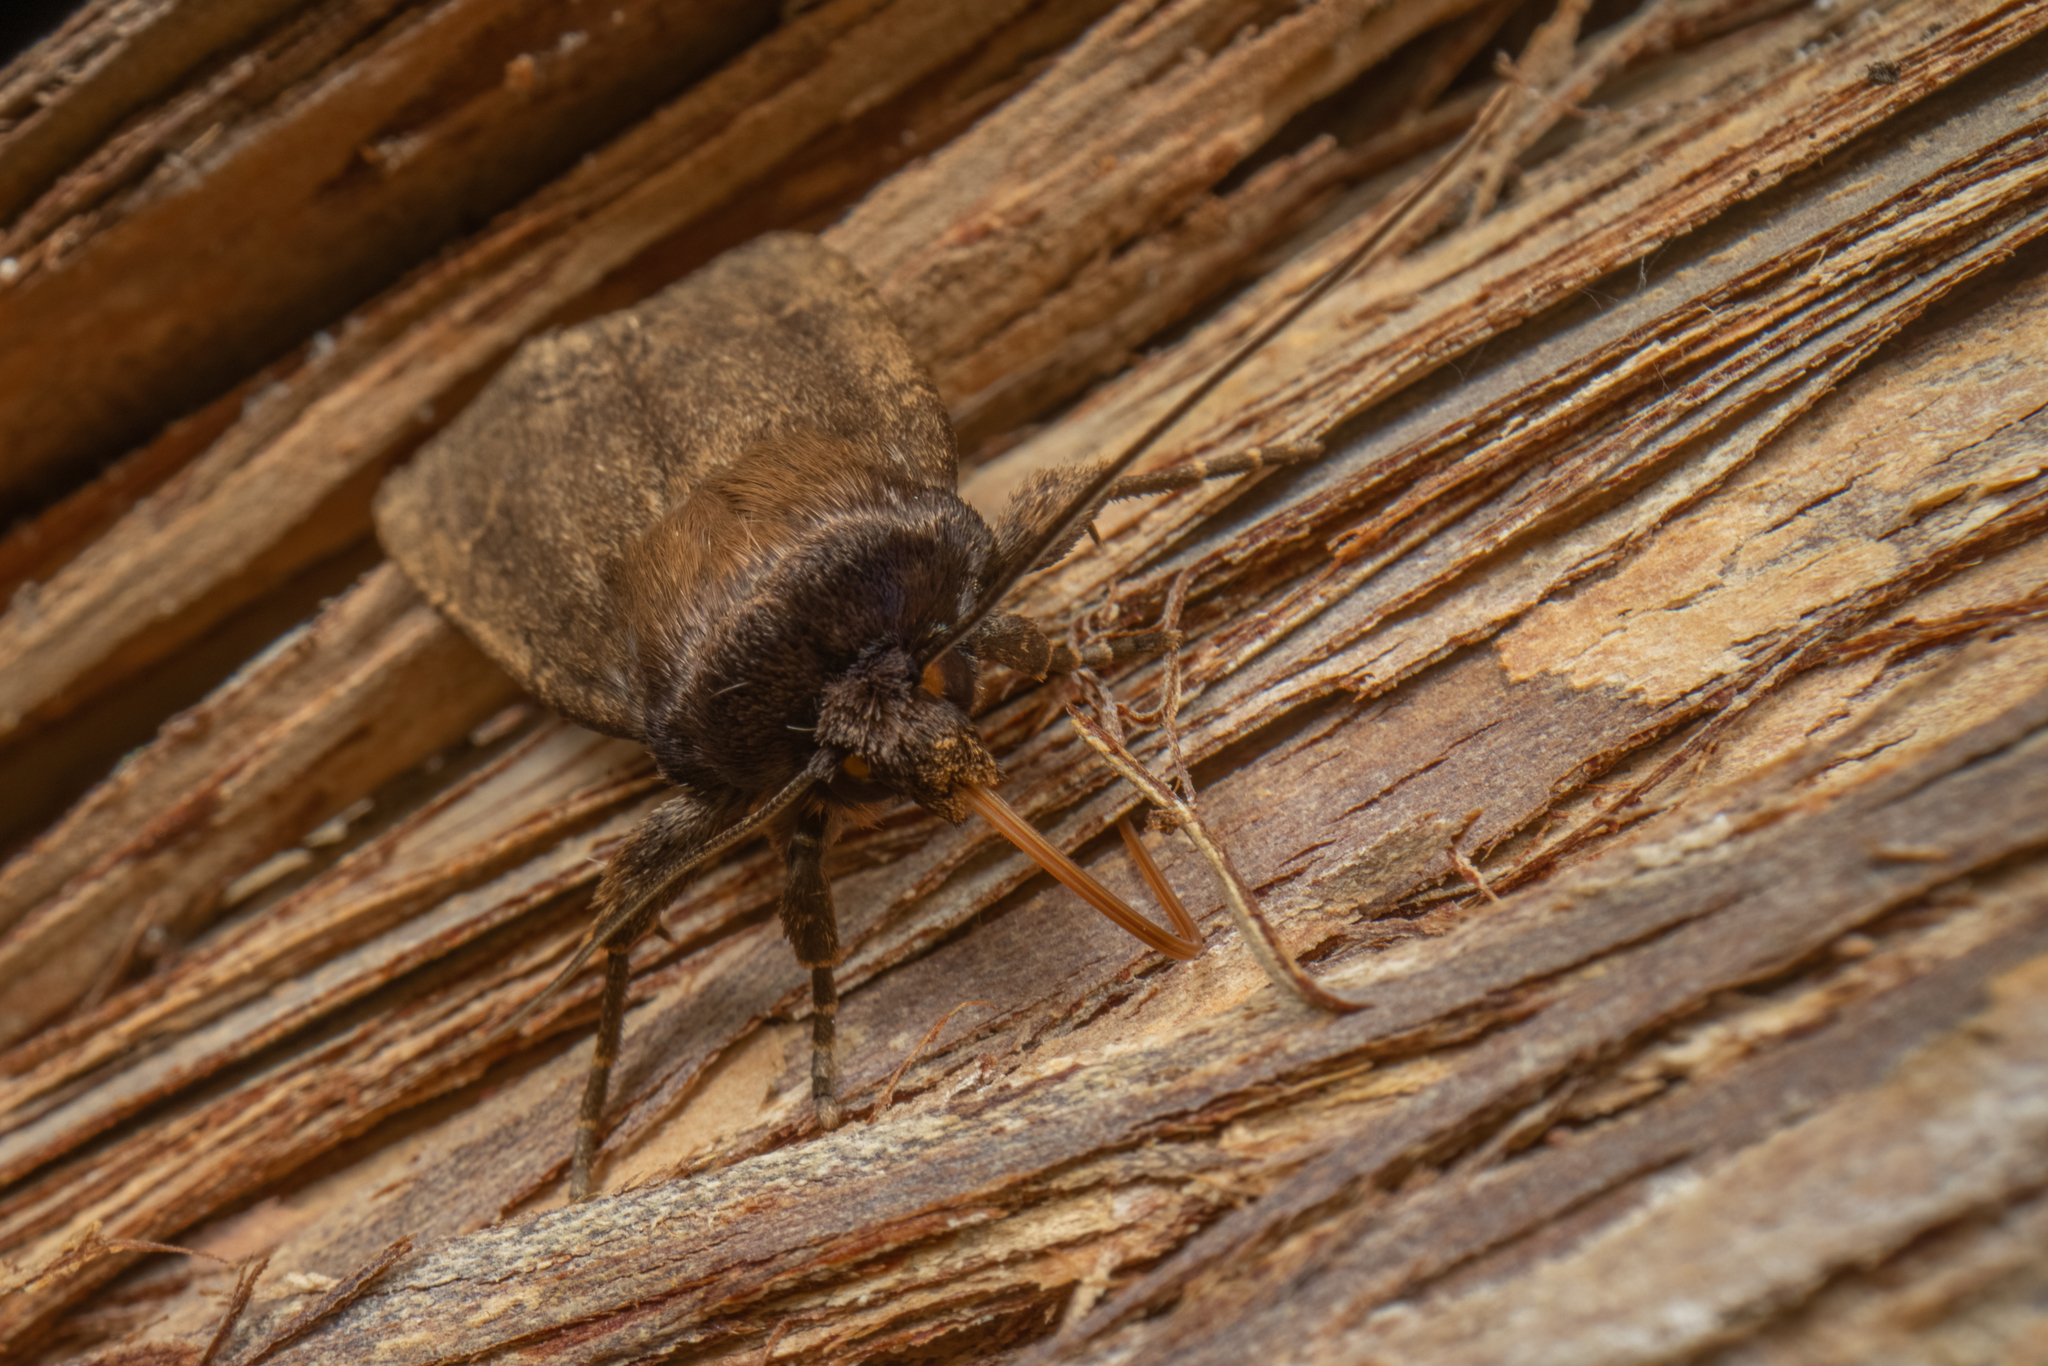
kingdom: Animalia
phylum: Arthropoda
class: Insecta
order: Lepidoptera
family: Noctuidae
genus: Bityla
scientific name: Bityla defigurata
